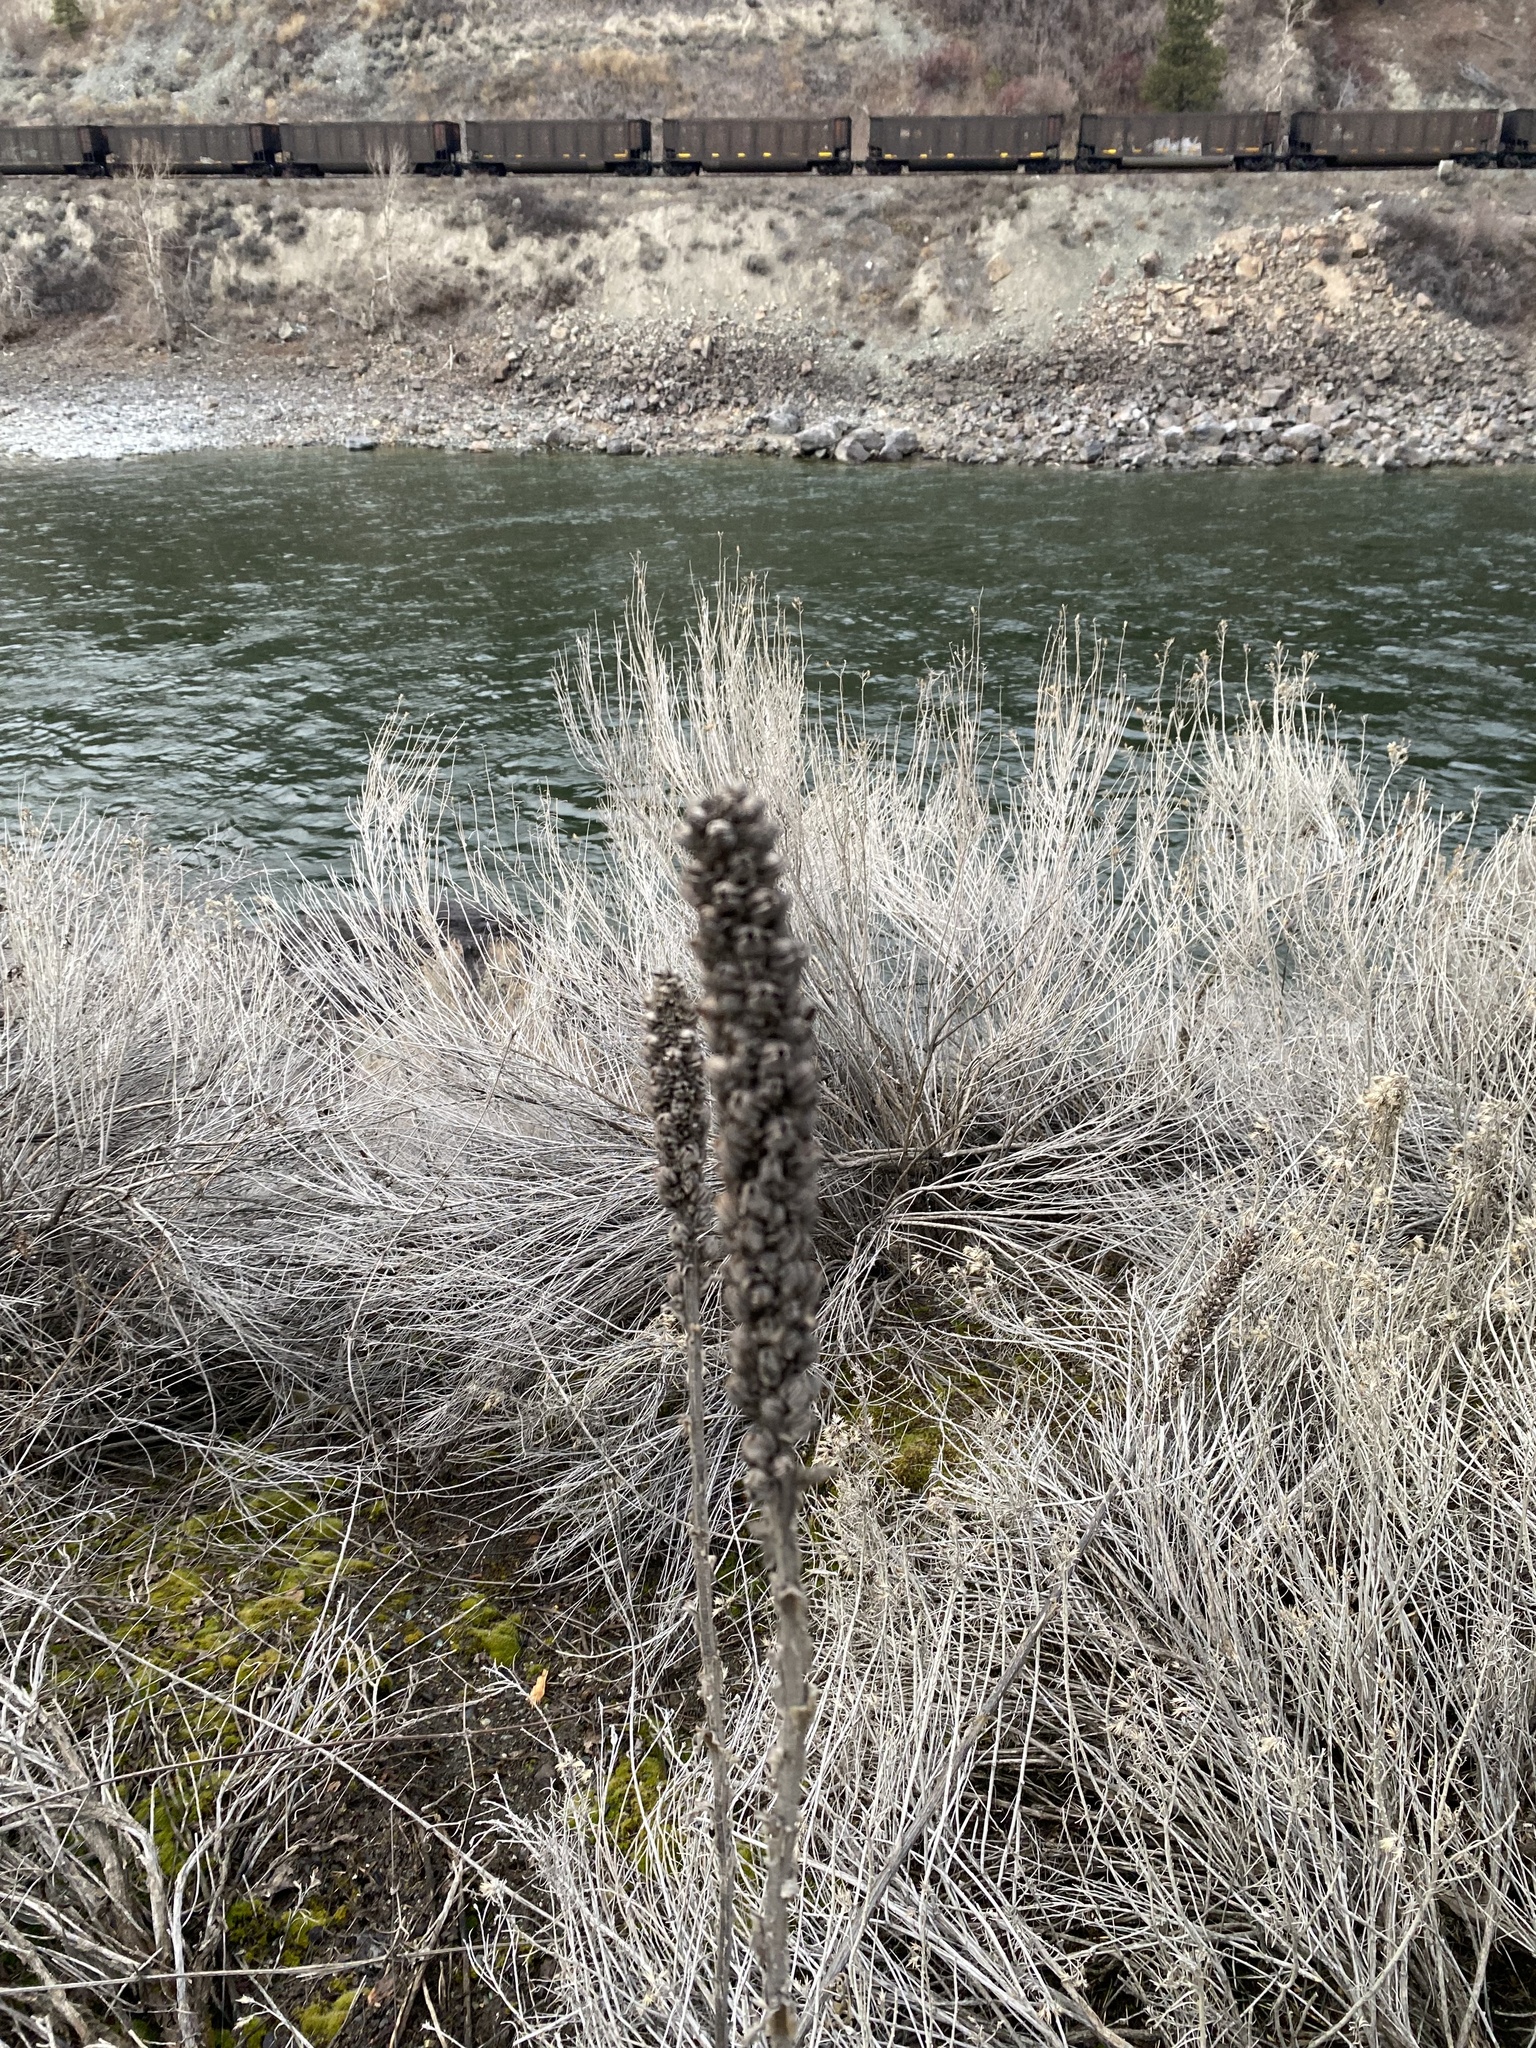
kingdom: Plantae
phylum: Tracheophyta
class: Magnoliopsida
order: Lamiales
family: Scrophulariaceae
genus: Verbascum
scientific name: Verbascum thapsus
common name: Common mullein
